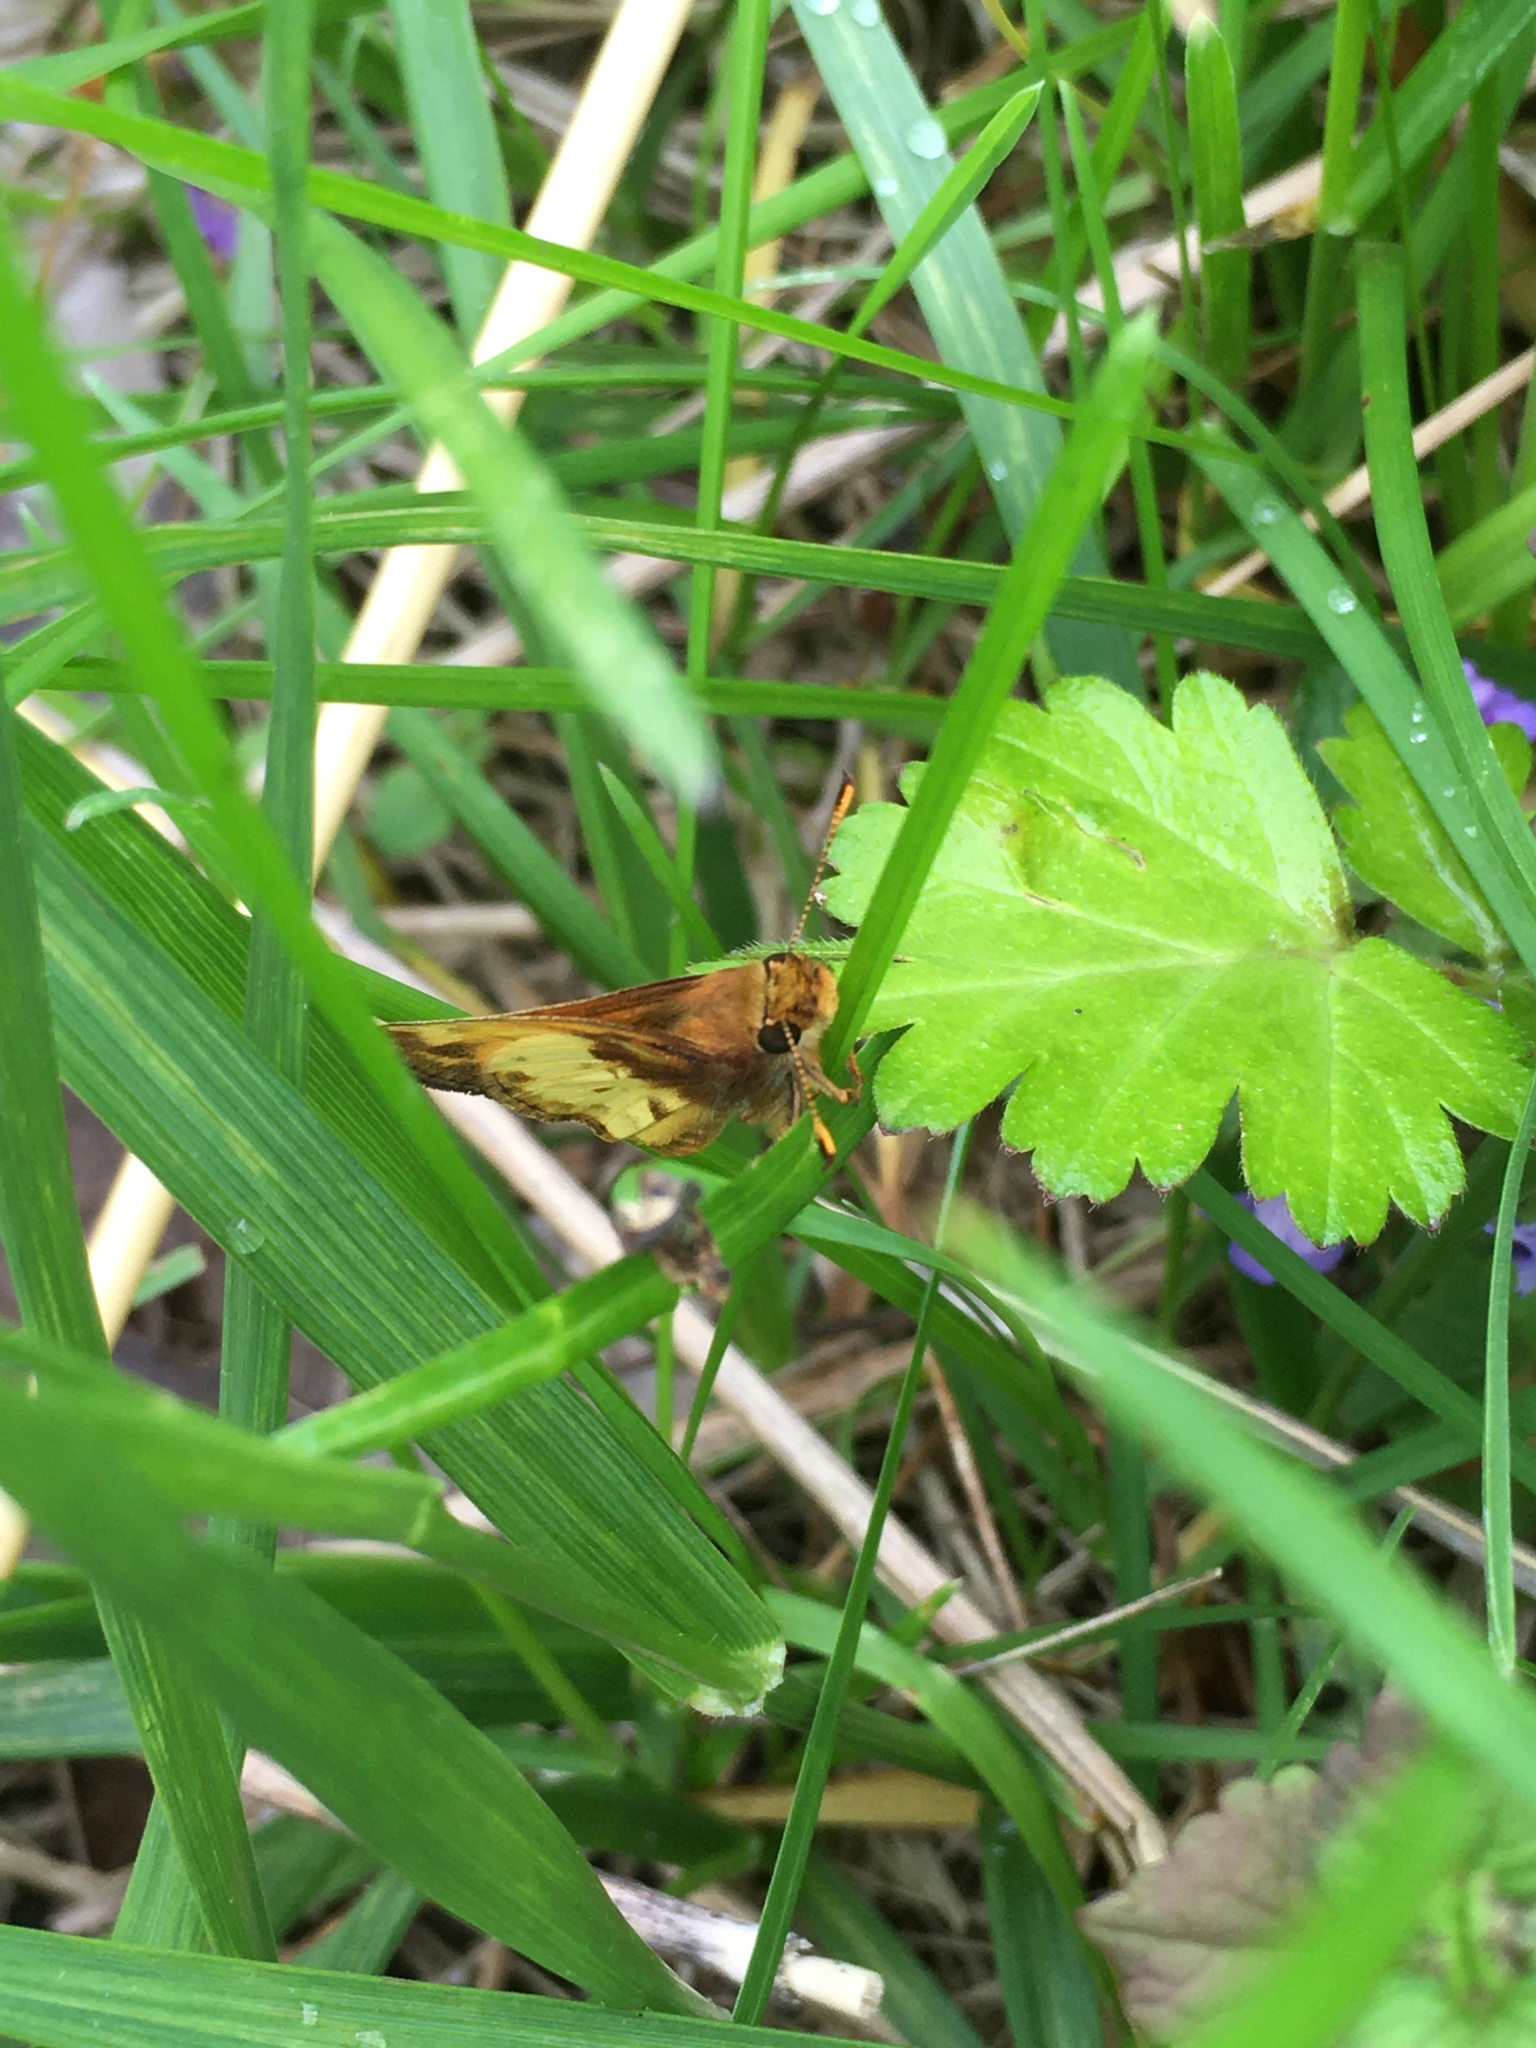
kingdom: Animalia
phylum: Arthropoda
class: Insecta
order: Lepidoptera
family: Hesperiidae
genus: Lon
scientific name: Lon zabulon
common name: Zabulon skipper
